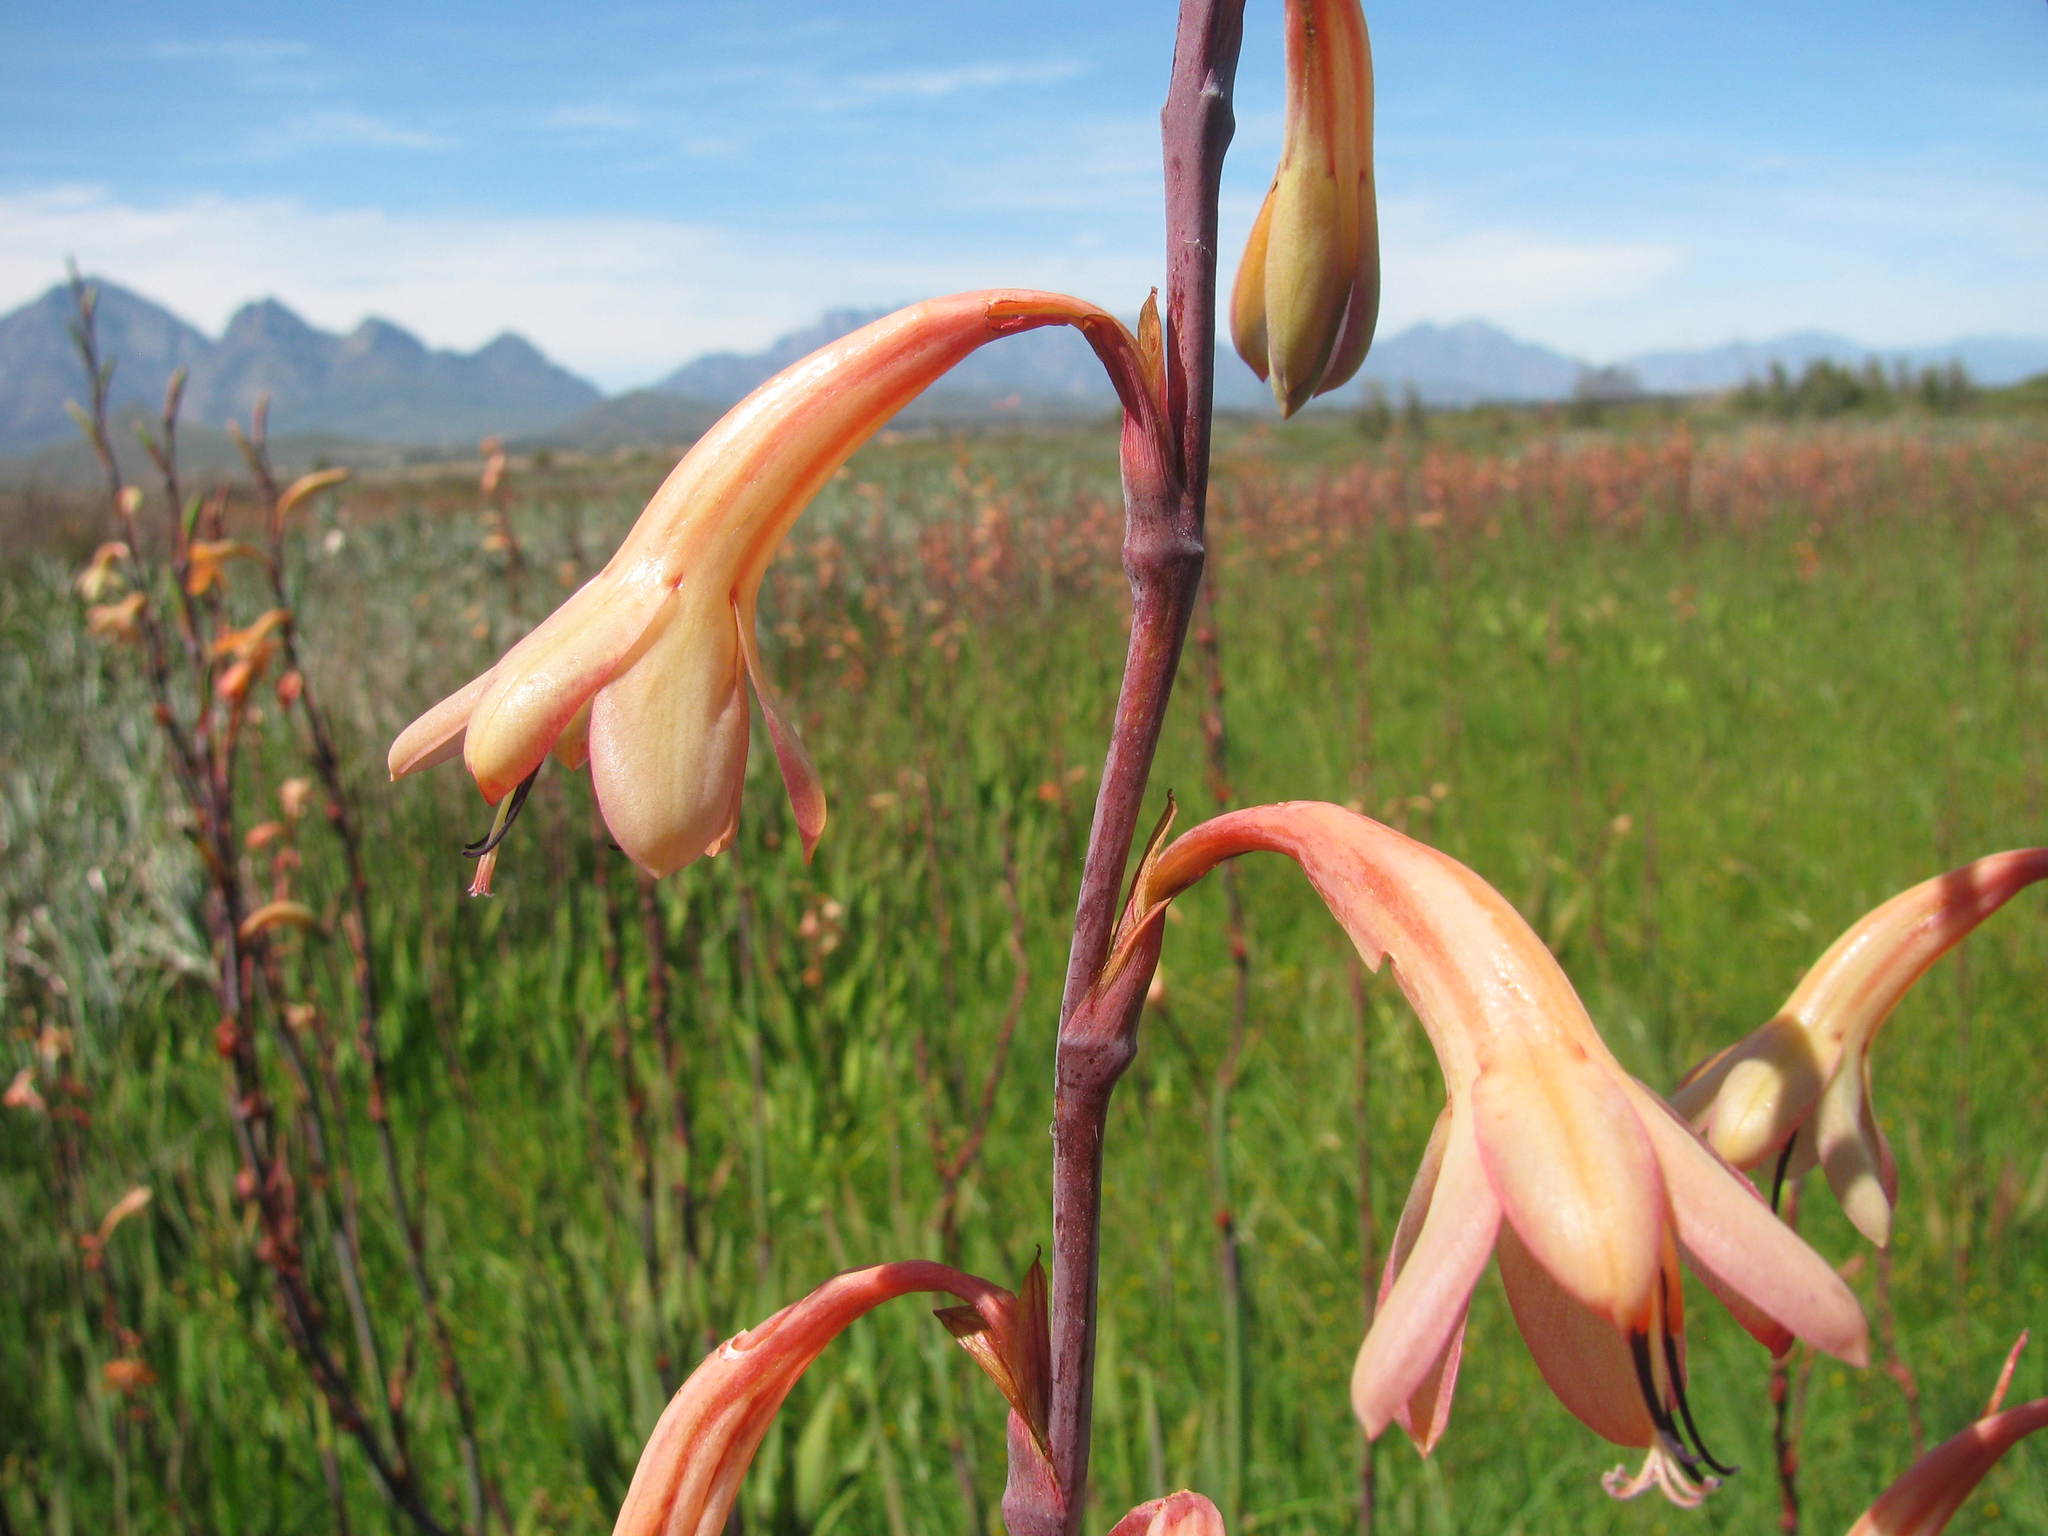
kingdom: Plantae
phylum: Tracheophyta
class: Liliopsida
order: Asparagales
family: Iridaceae
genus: Watsonia
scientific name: Watsonia meriana
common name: Bulbil bugle-lily
